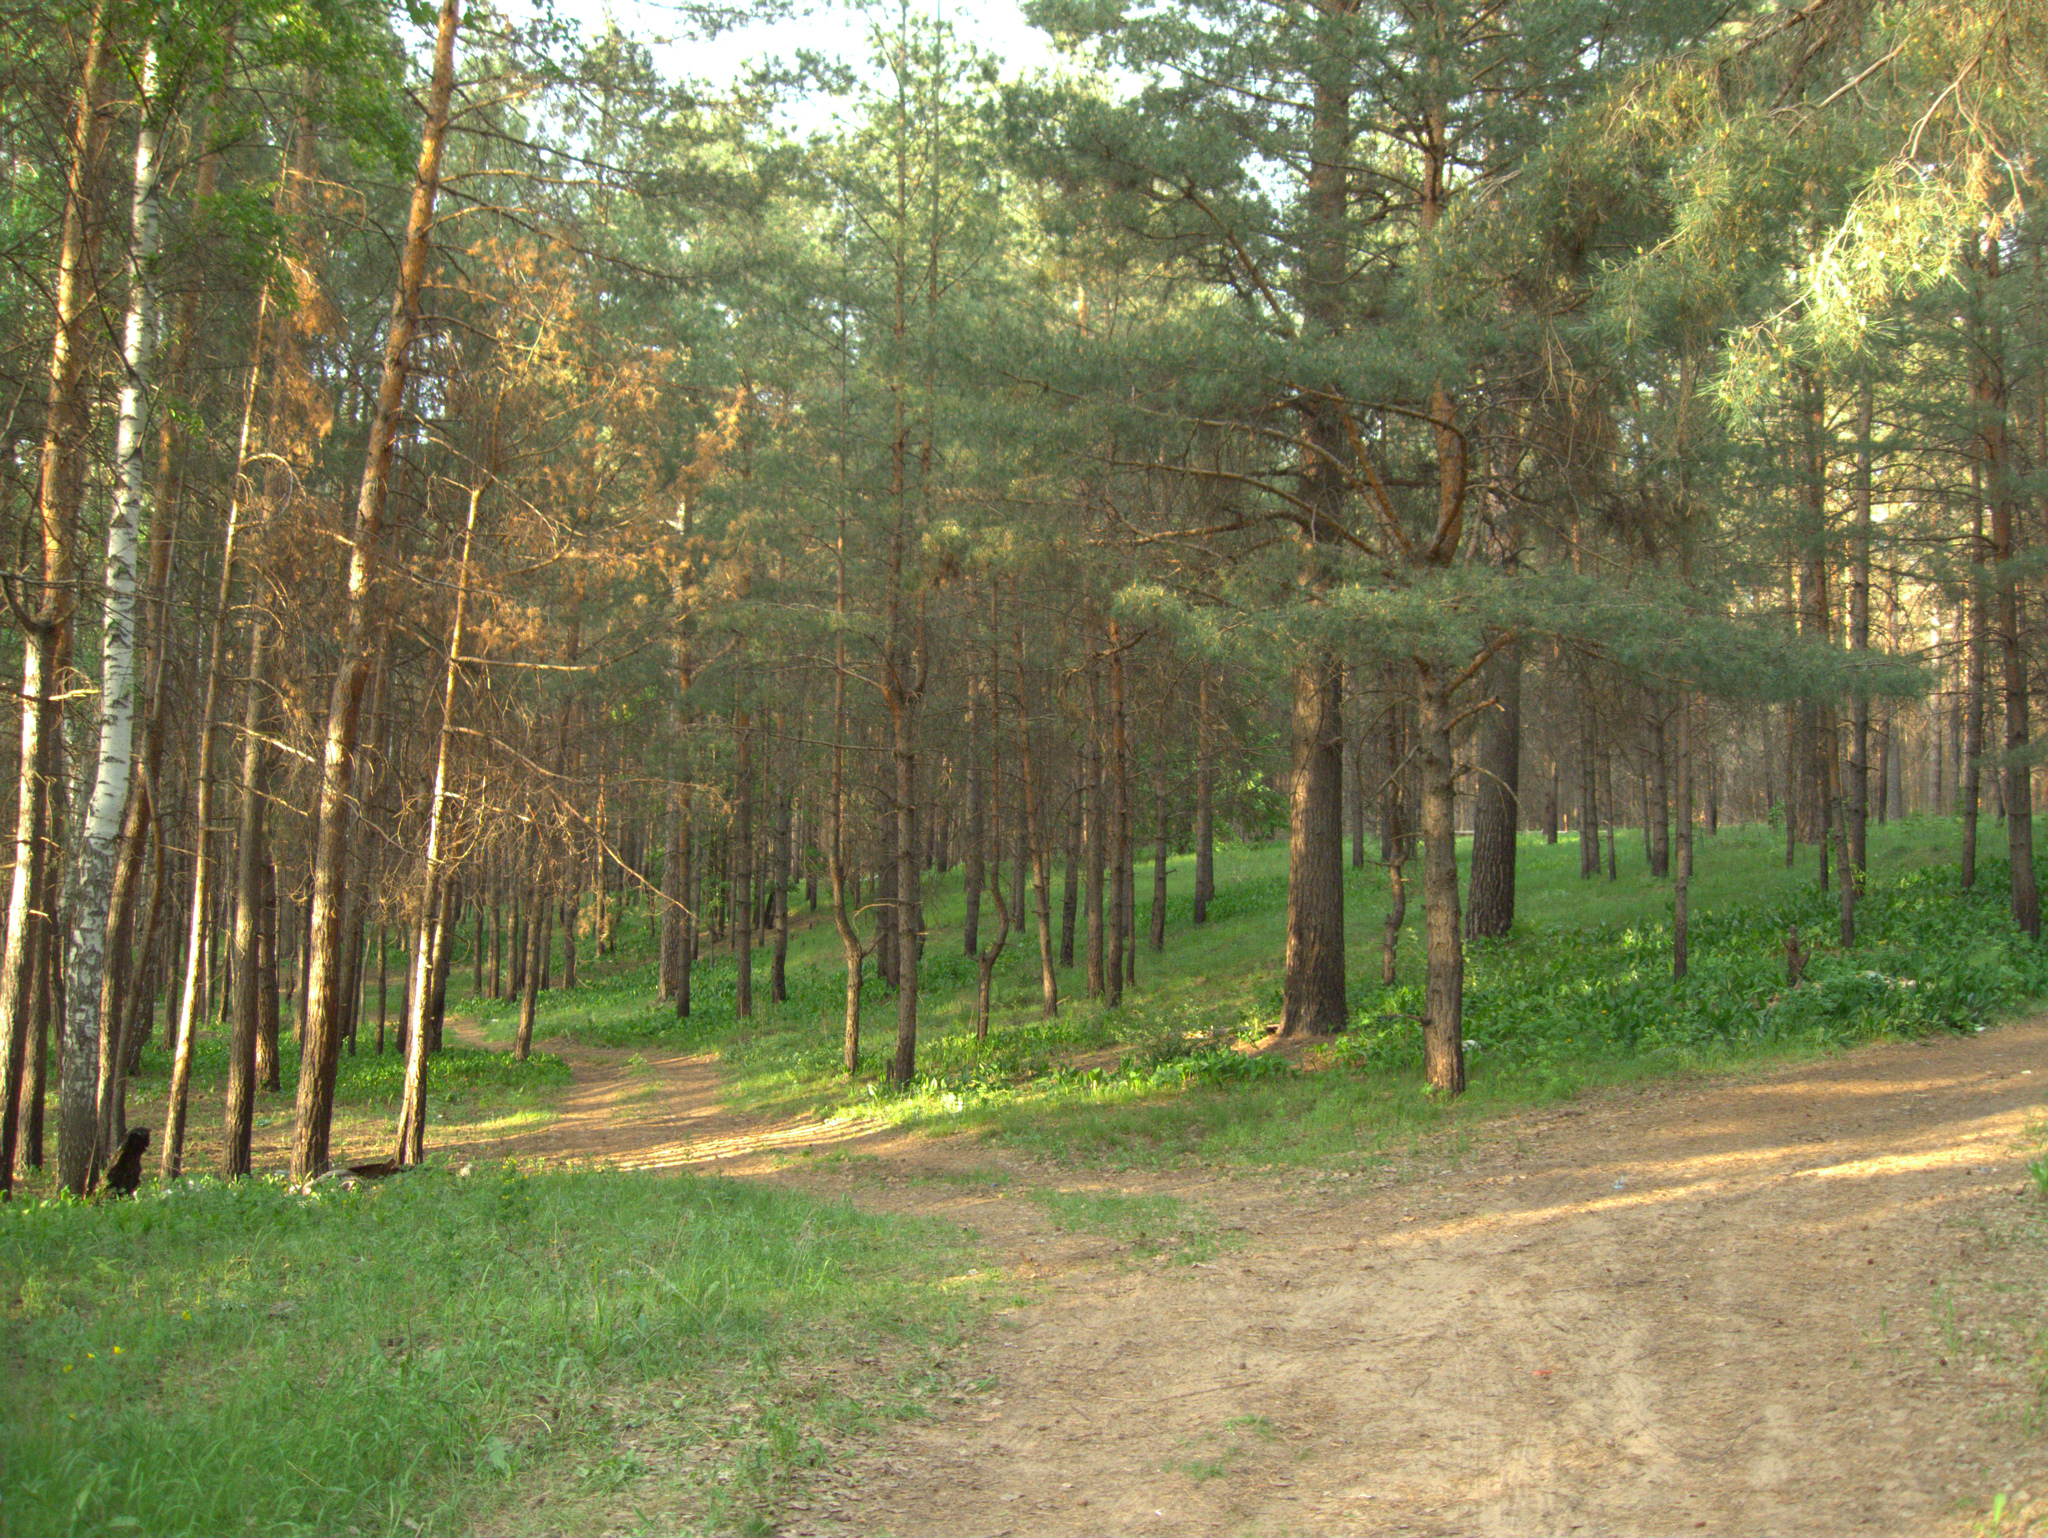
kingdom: Plantae
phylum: Tracheophyta
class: Pinopsida
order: Pinales
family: Pinaceae
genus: Pinus
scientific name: Pinus sylvestris
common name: Scots pine
